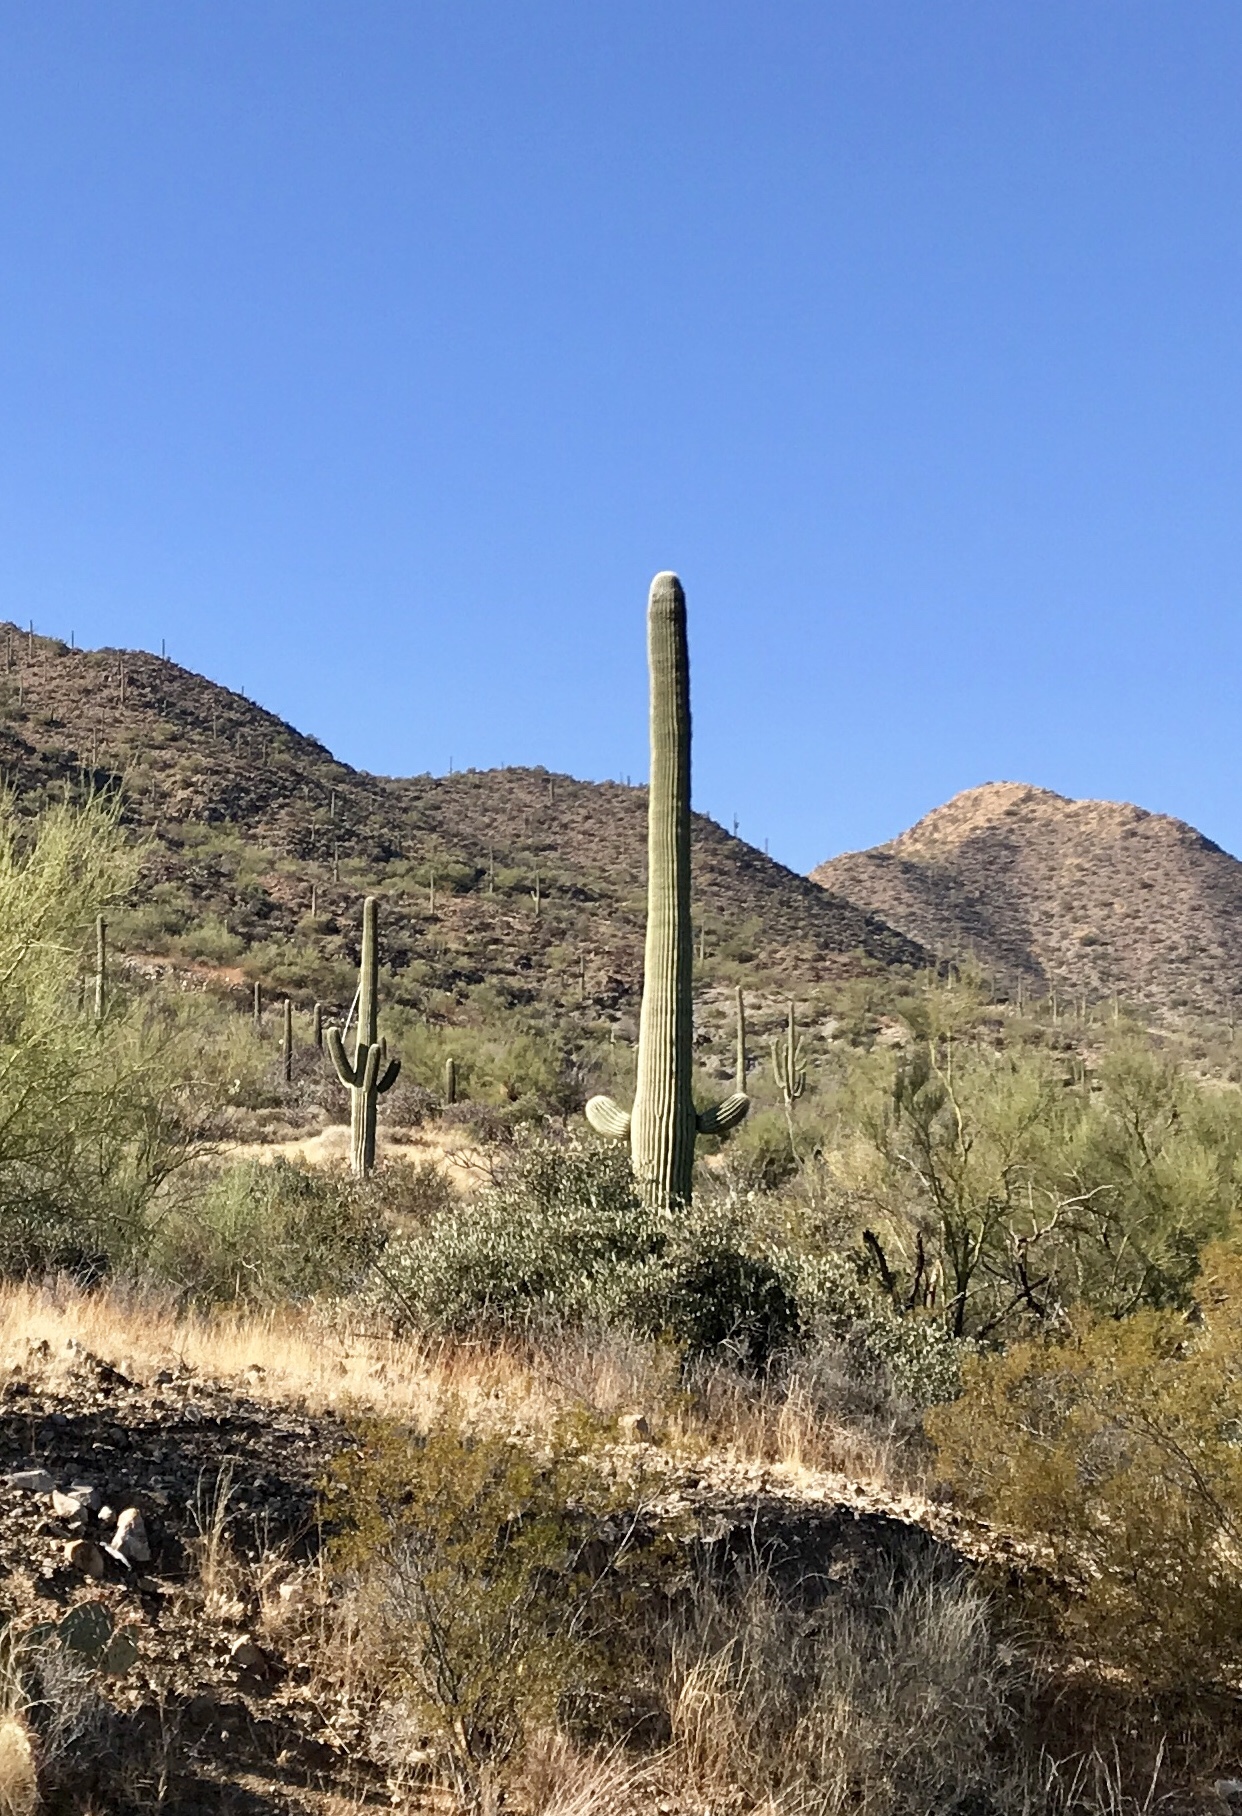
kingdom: Plantae
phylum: Tracheophyta
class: Magnoliopsida
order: Caryophyllales
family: Cactaceae
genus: Carnegiea
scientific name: Carnegiea gigantea
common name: Saguaro
